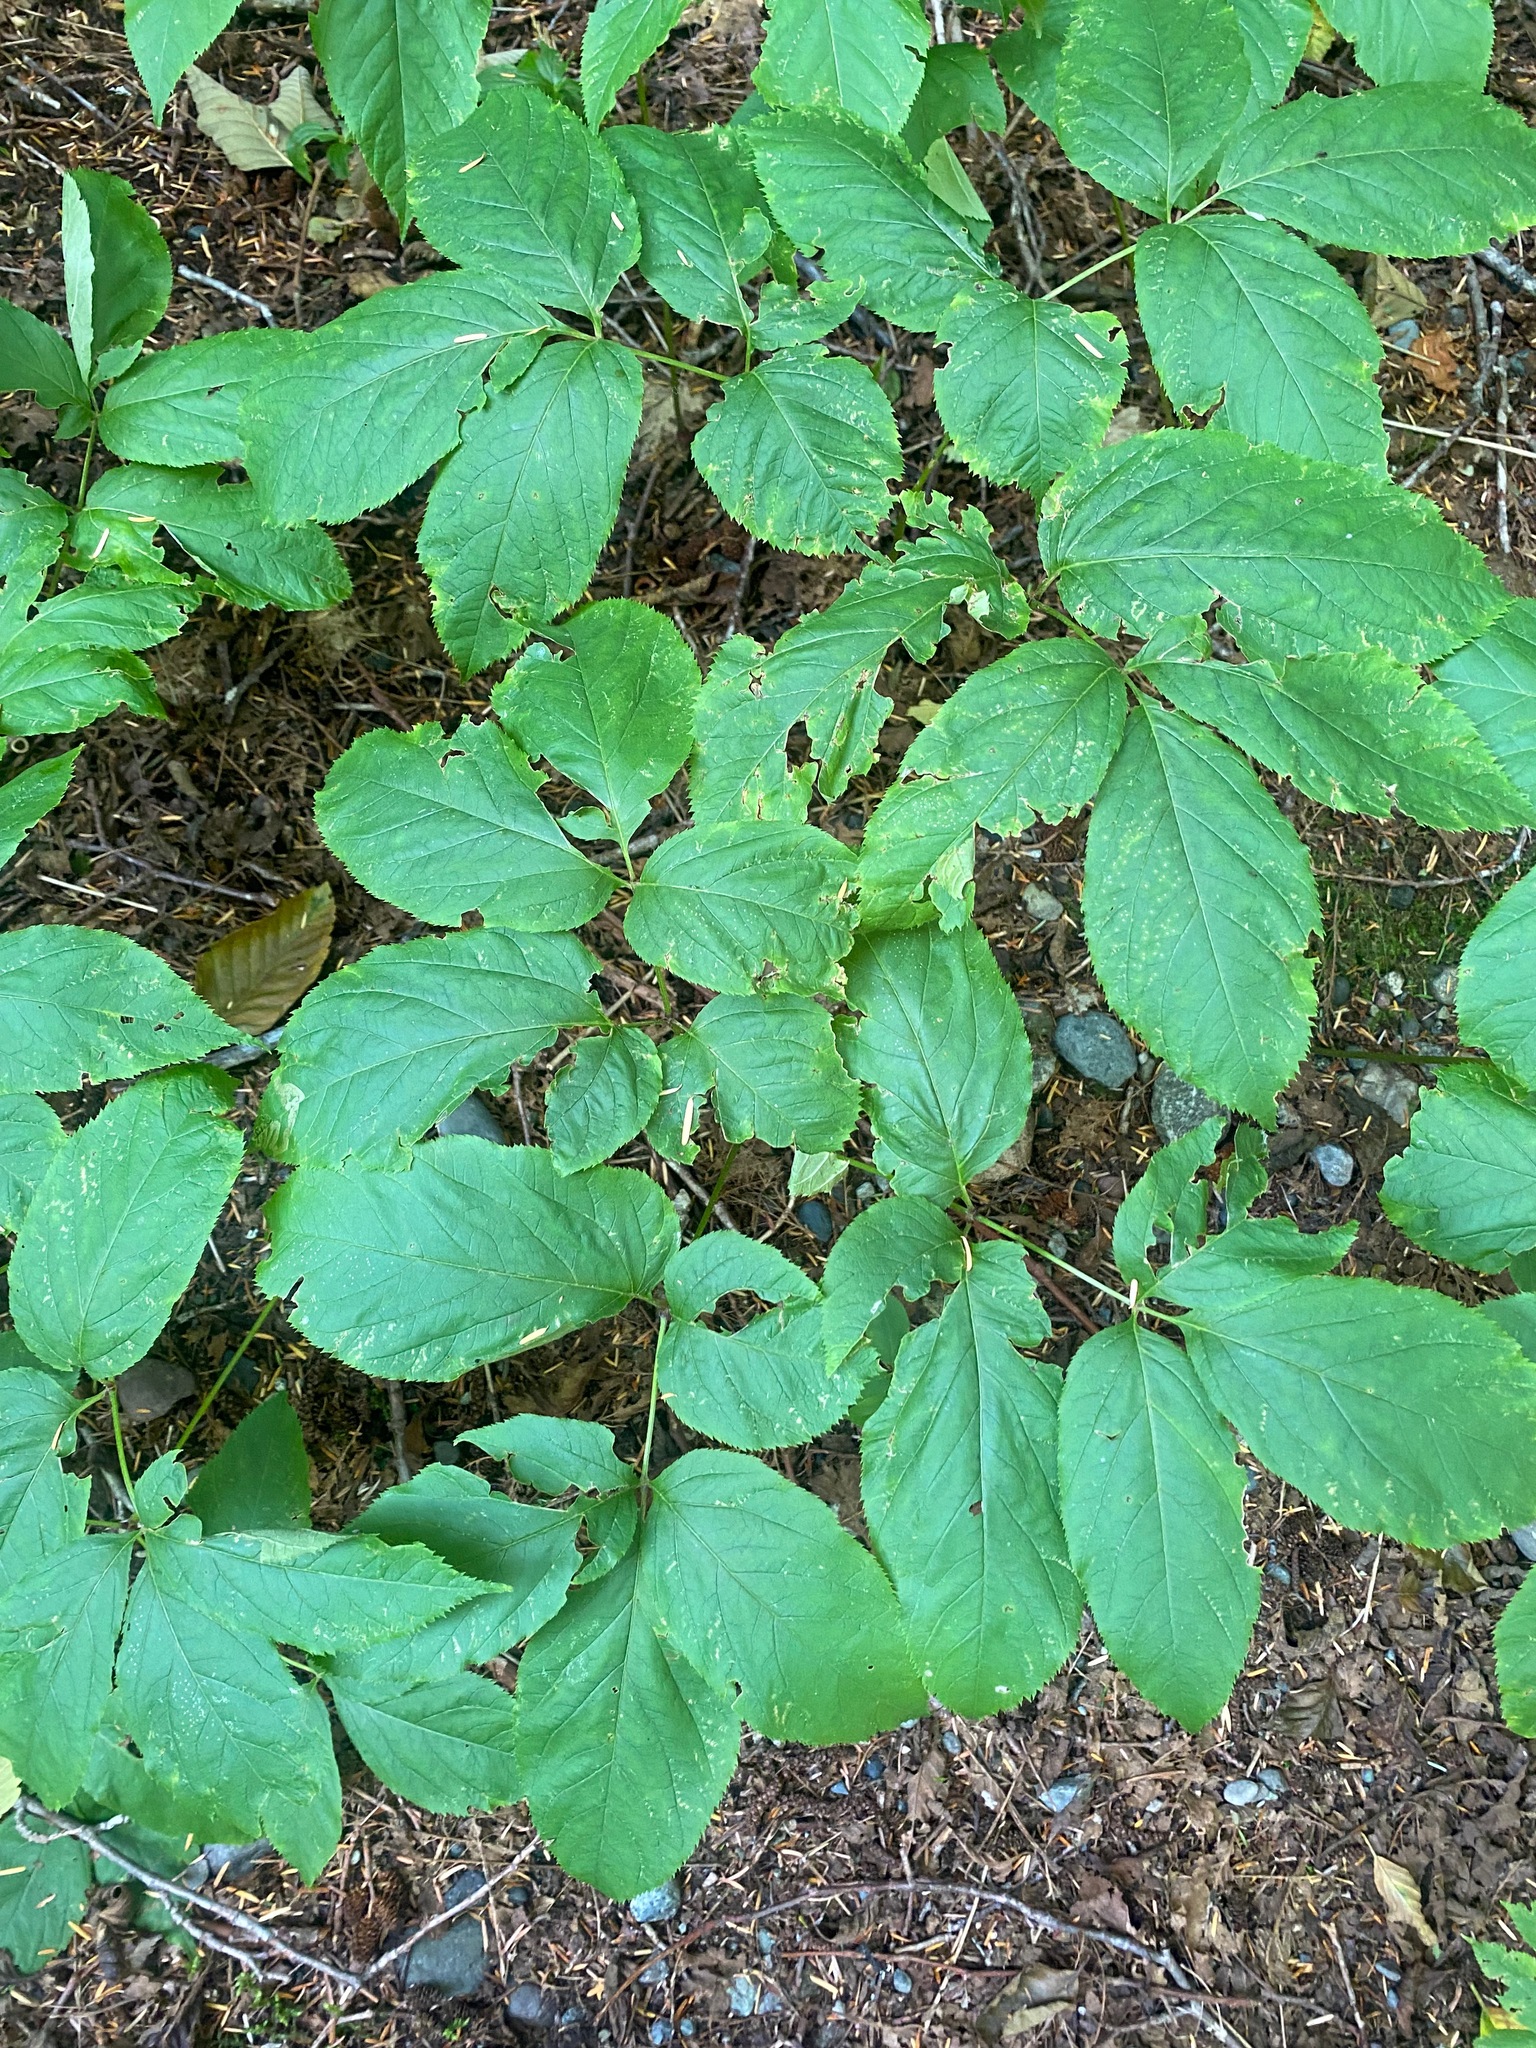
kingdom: Plantae
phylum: Tracheophyta
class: Magnoliopsida
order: Apiales
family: Araliaceae
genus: Aralia
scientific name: Aralia nudicaulis
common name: Wild sarsaparilla
